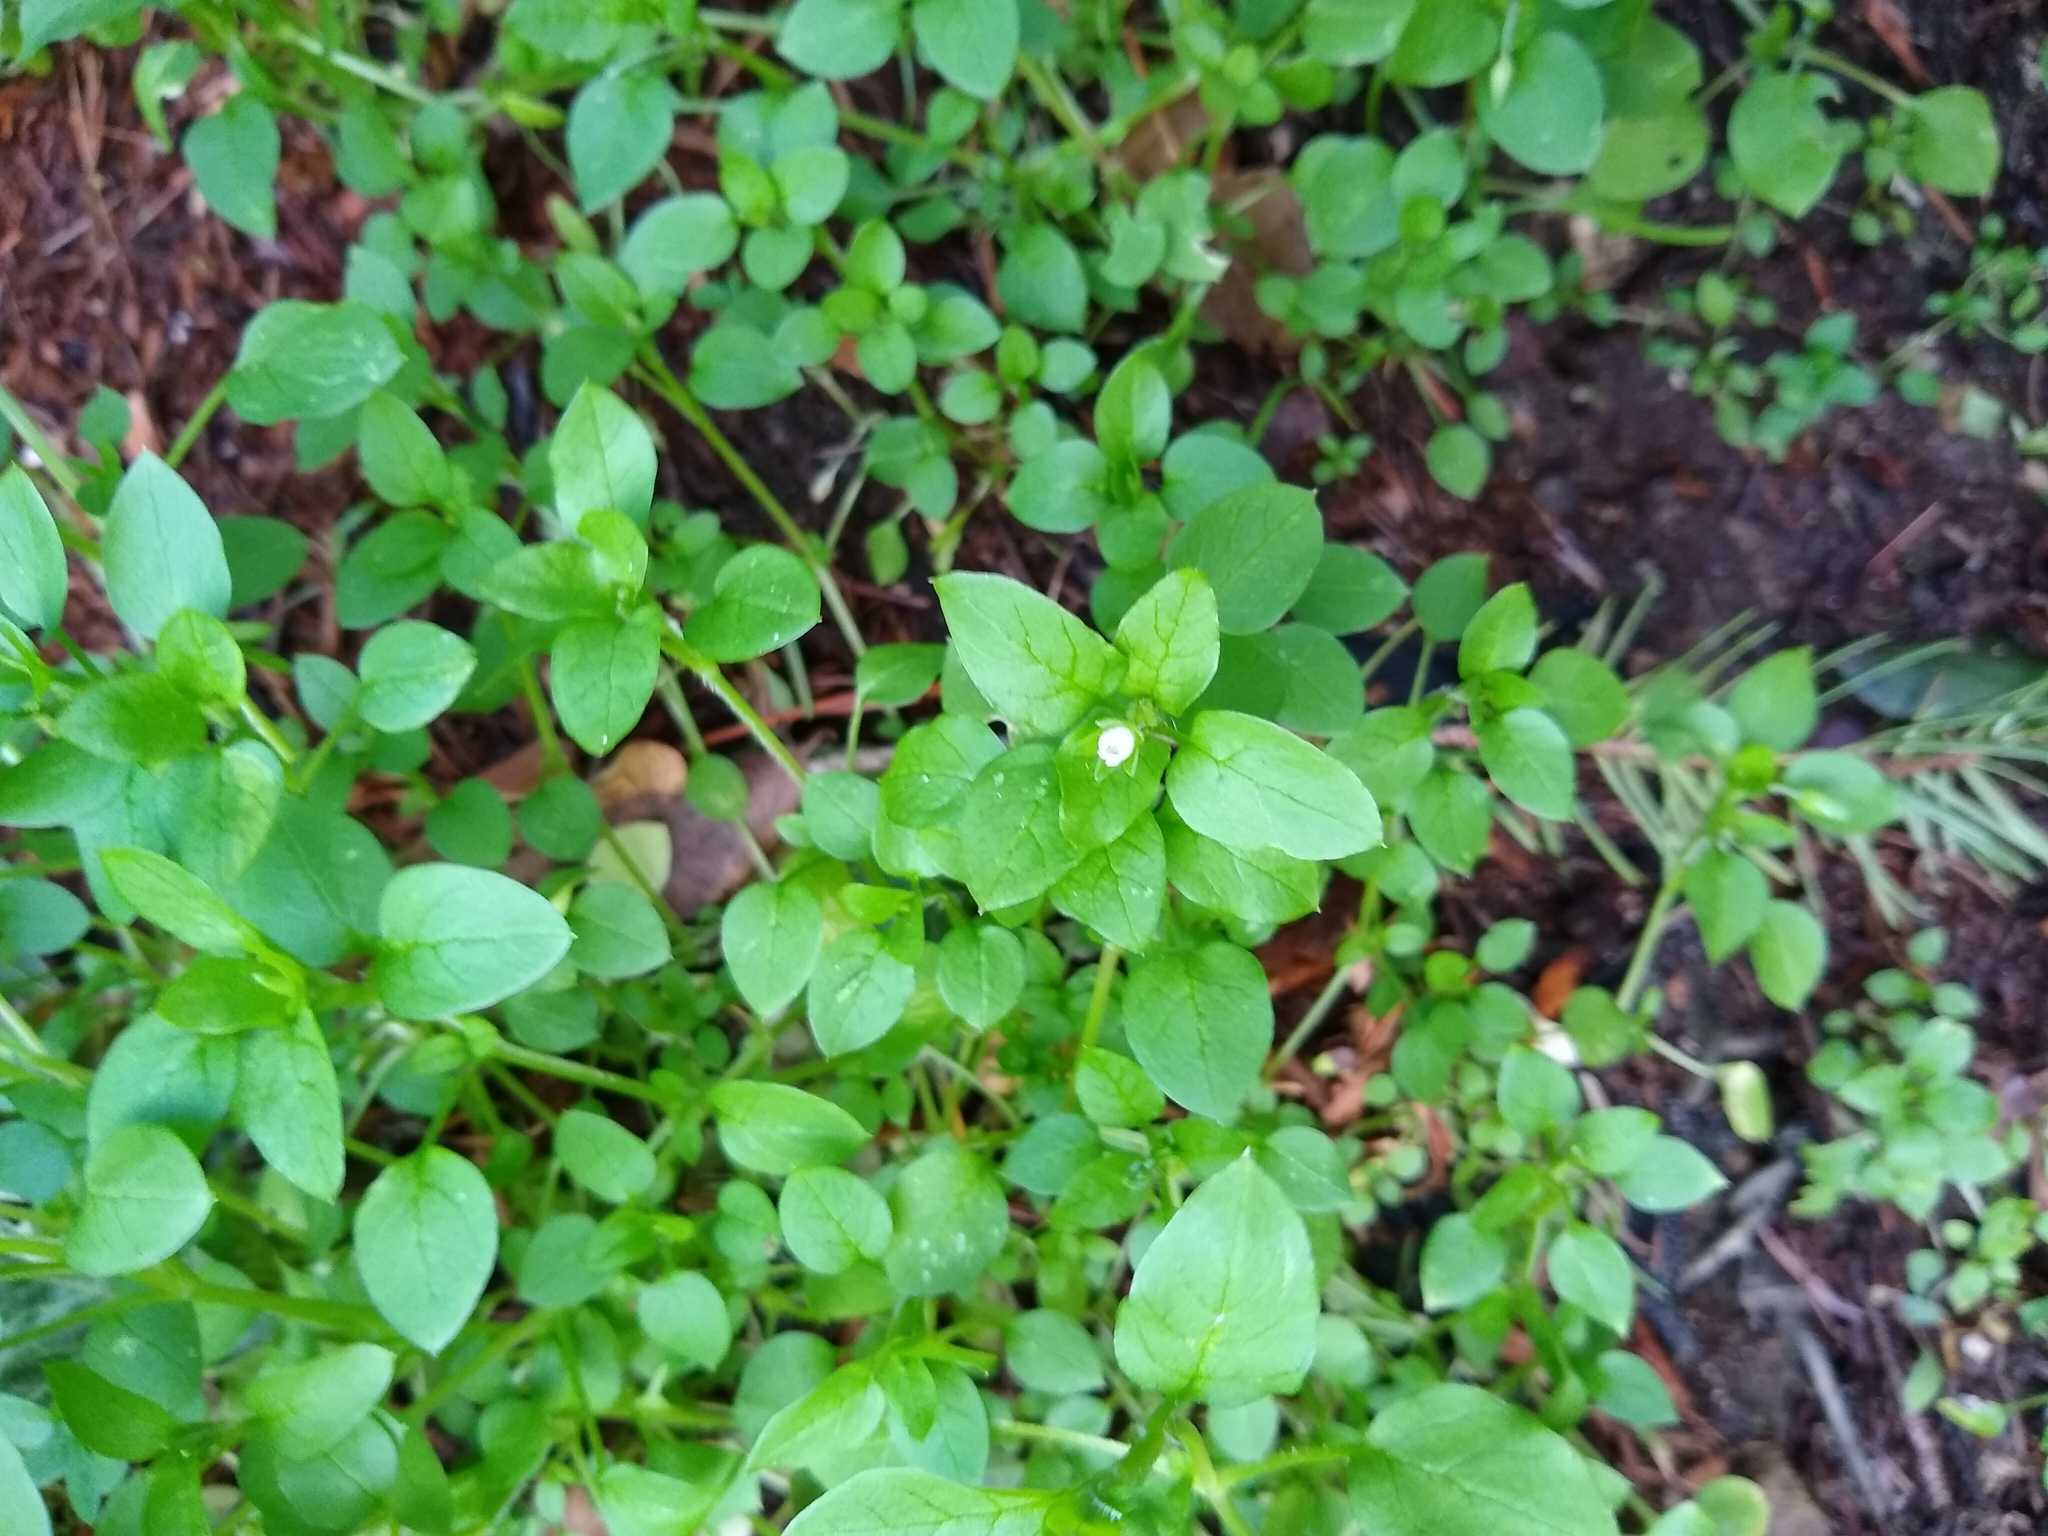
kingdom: Plantae
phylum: Tracheophyta
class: Magnoliopsida
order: Caryophyllales
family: Caryophyllaceae
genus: Stellaria
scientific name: Stellaria media
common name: Common chickweed
